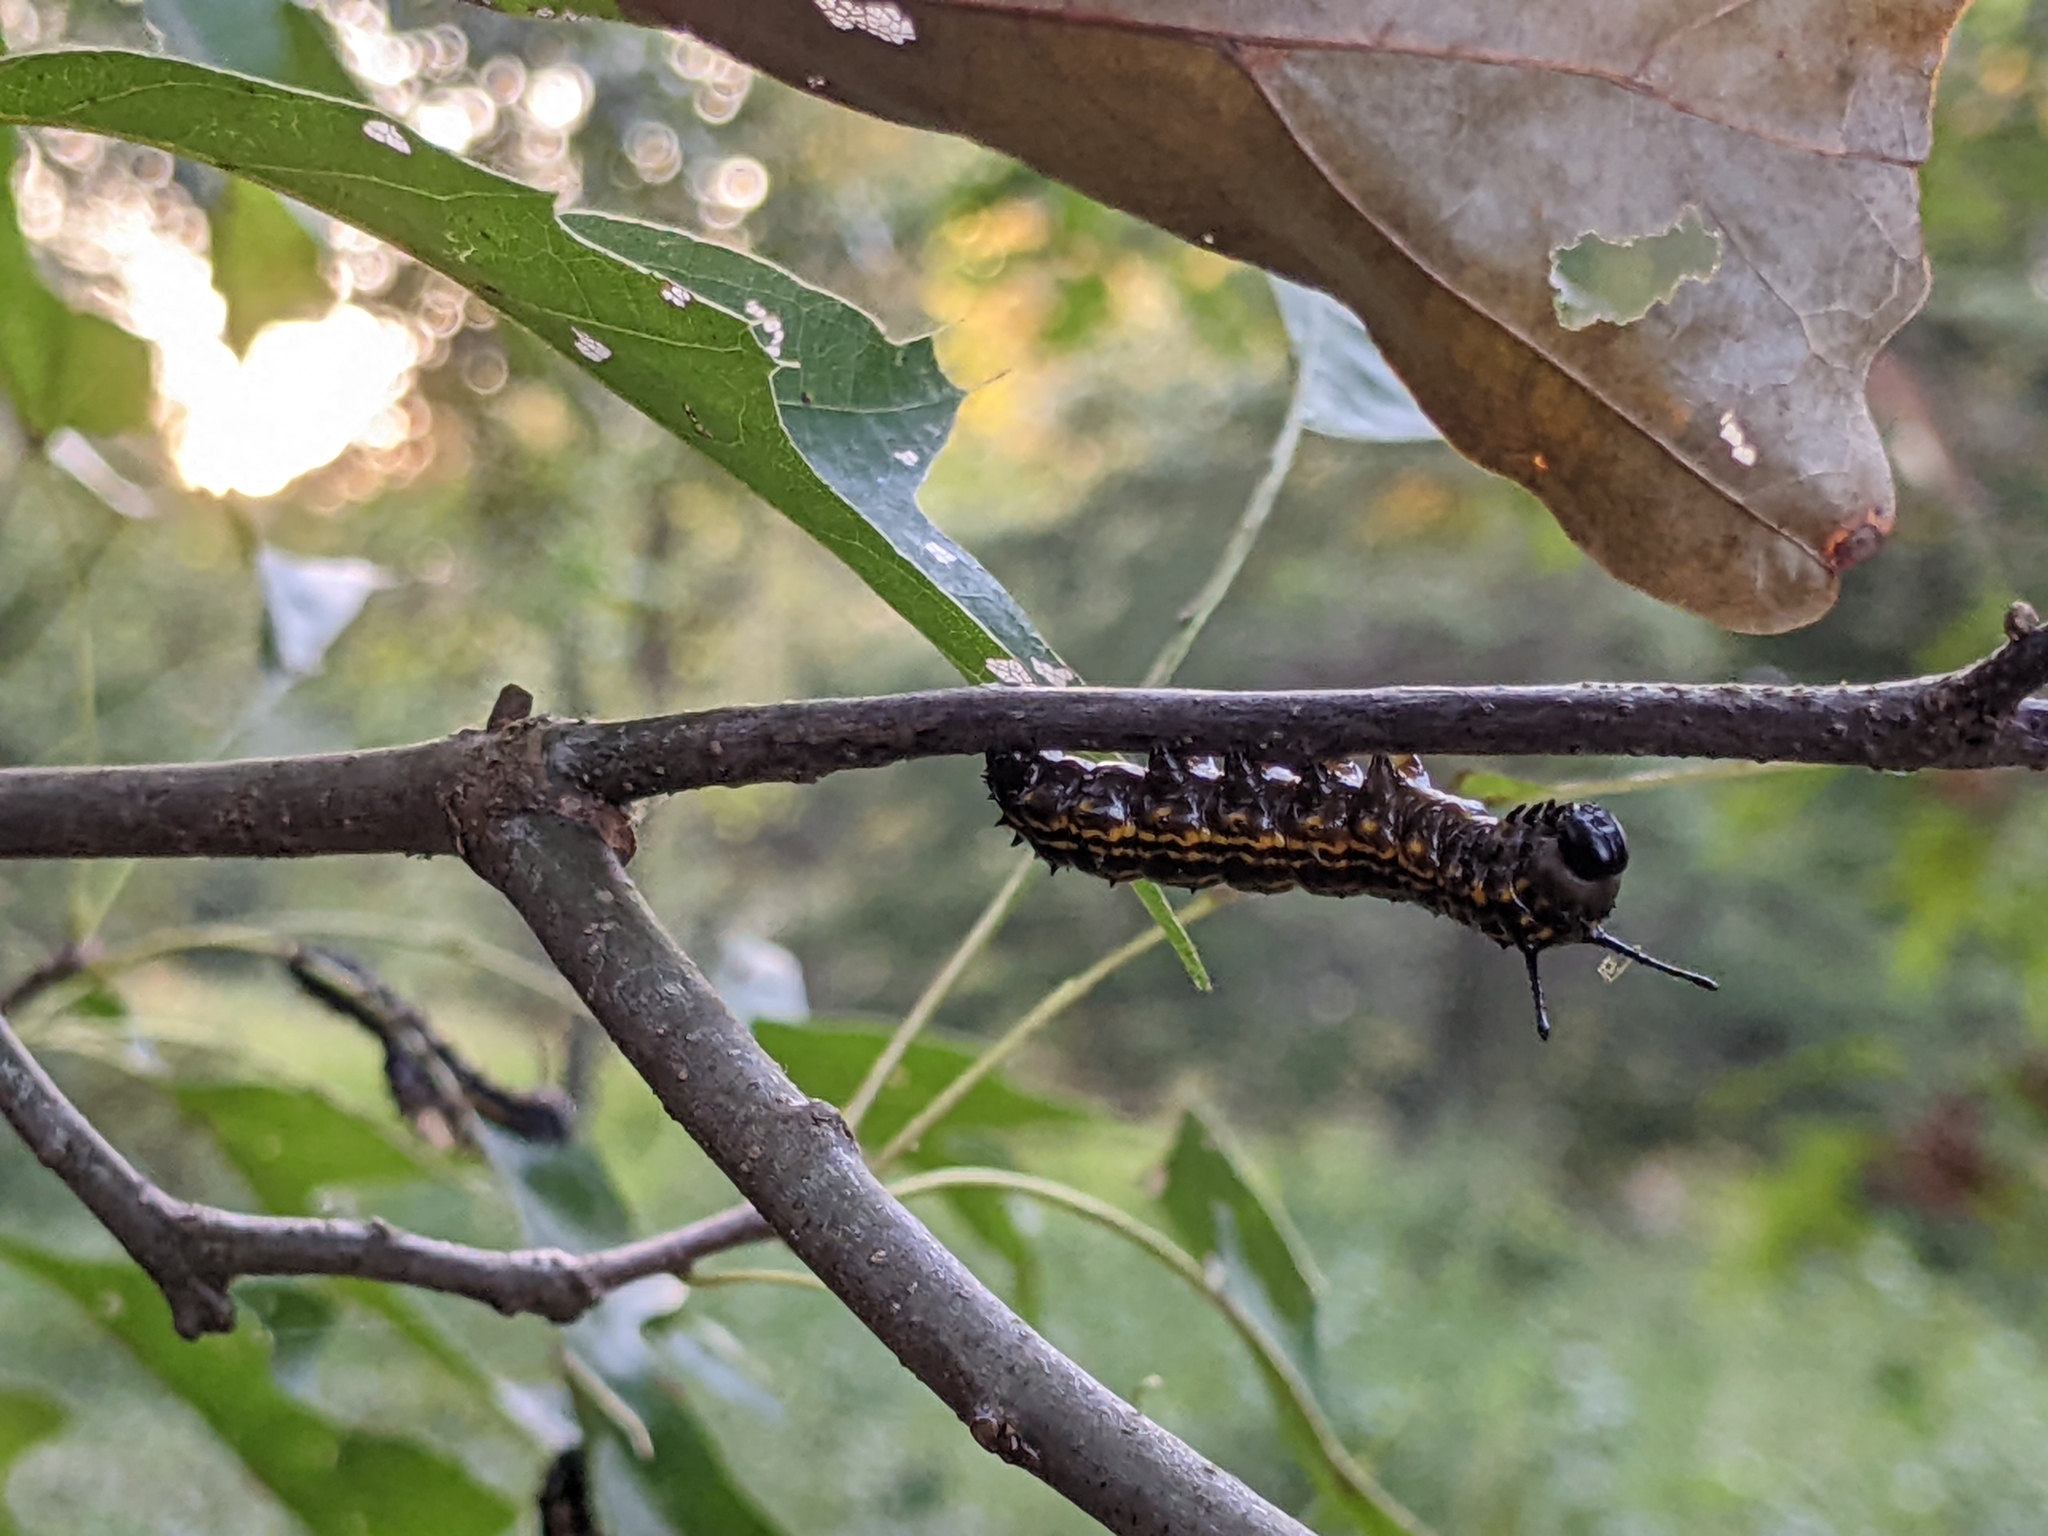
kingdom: Animalia
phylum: Arthropoda
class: Insecta
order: Lepidoptera
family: Saturniidae
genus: Anisota
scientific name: Anisota senatoria
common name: Orange-striped oakworm moth
